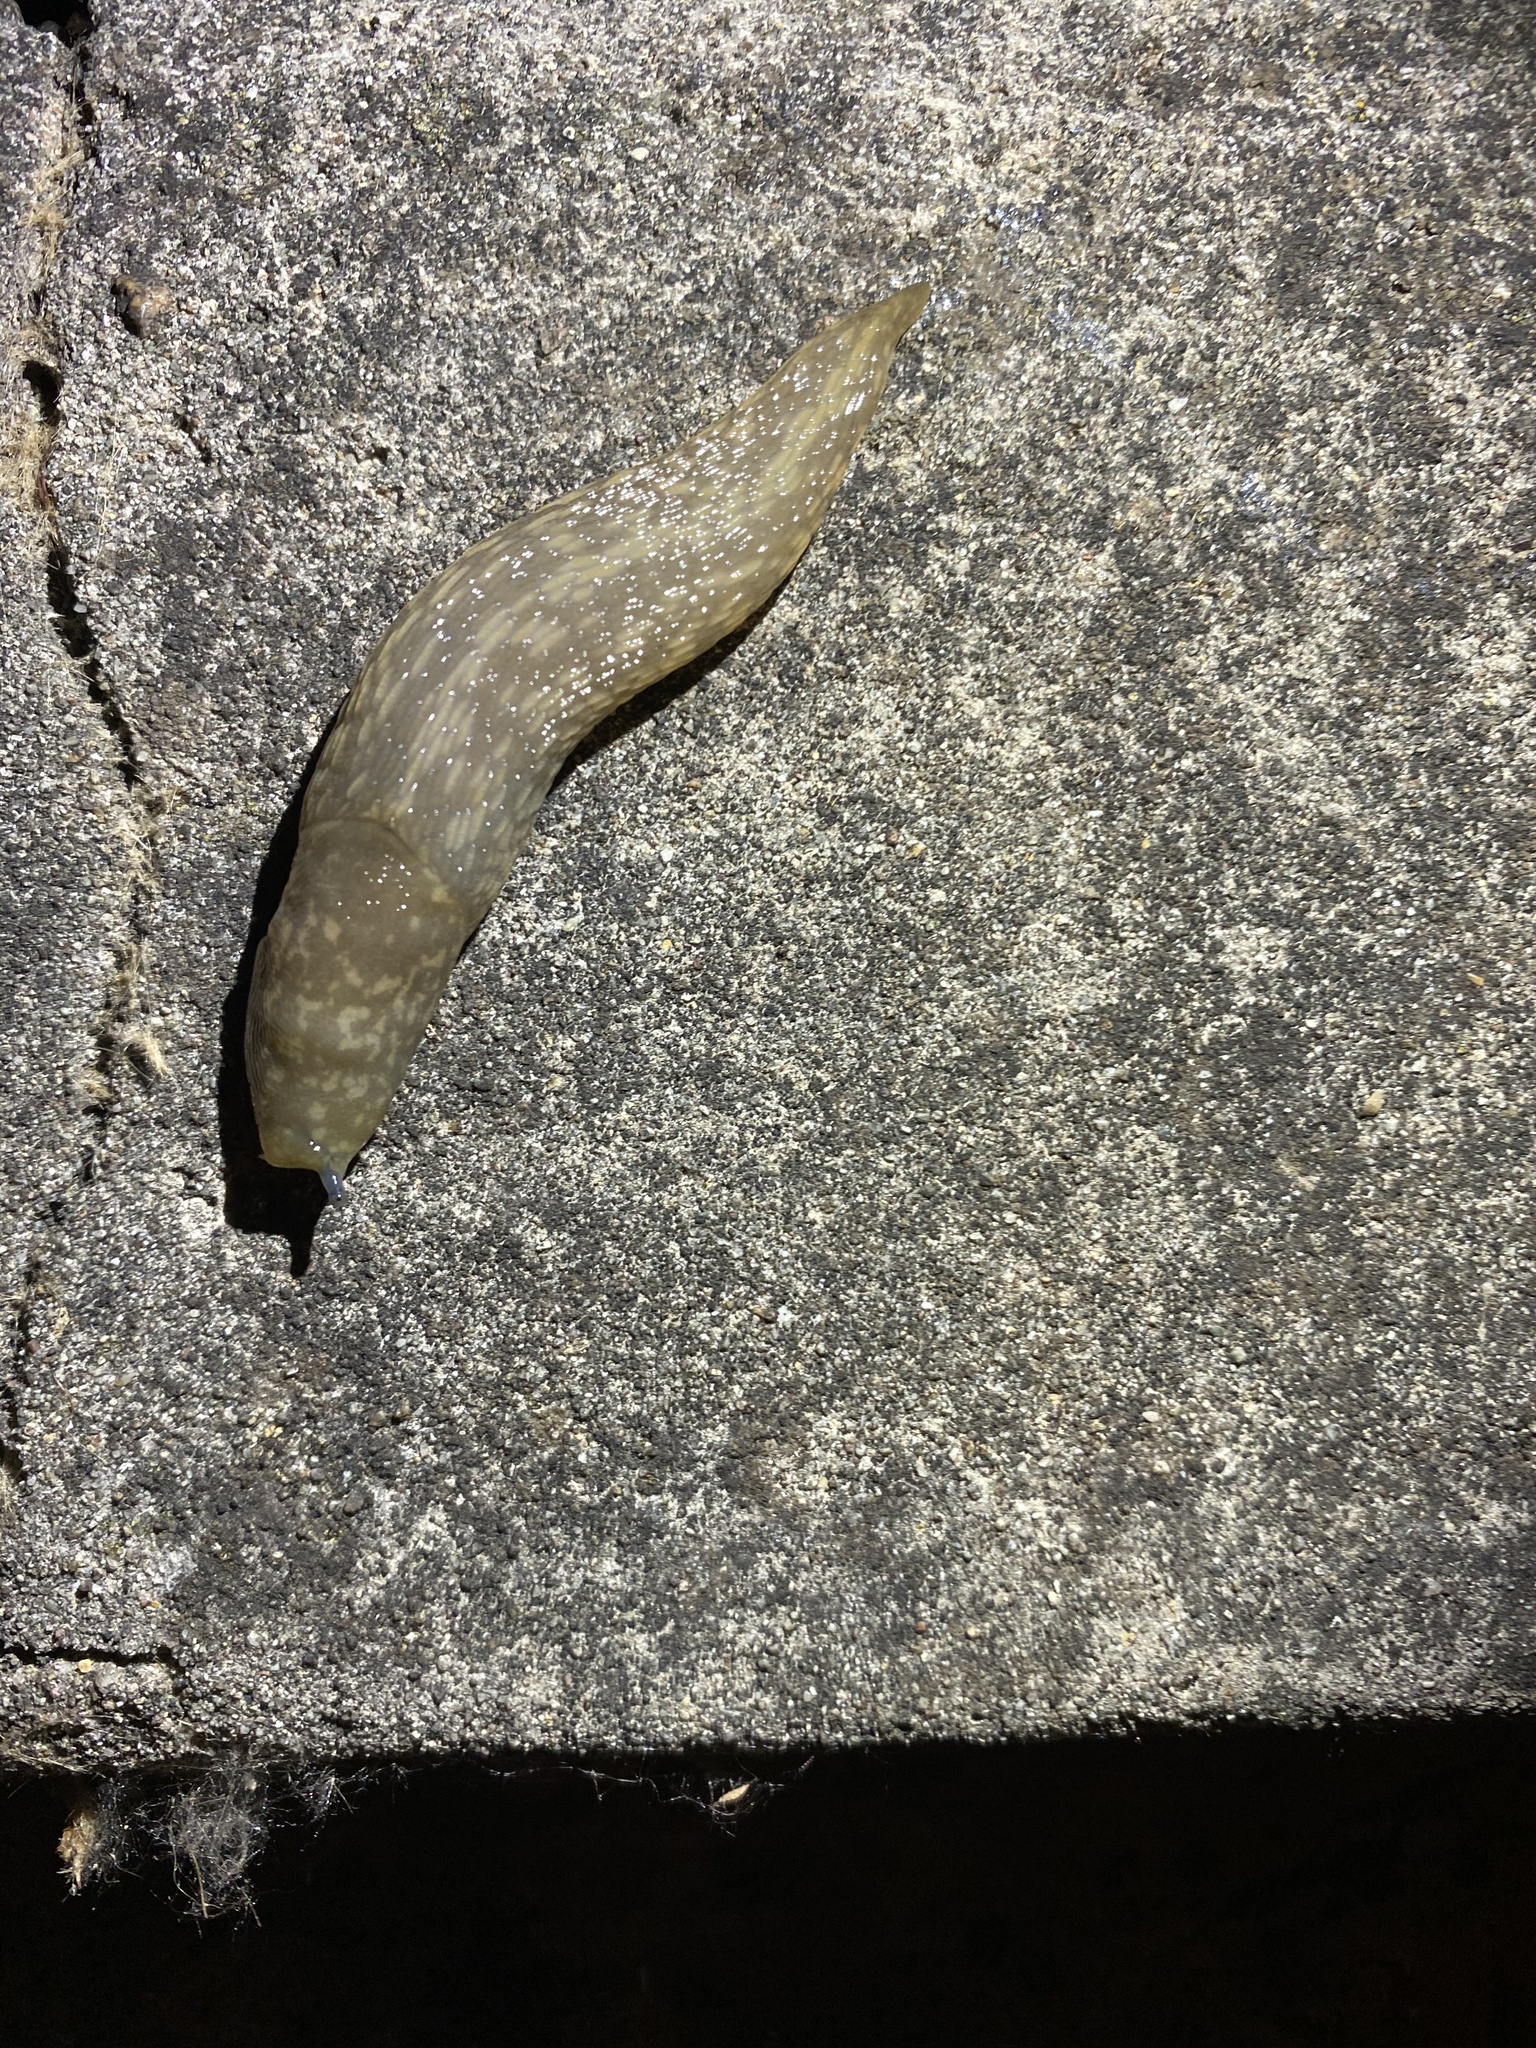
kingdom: Animalia
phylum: Mollusca
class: Gastropoda
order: Stylommatophora
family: Limacidae
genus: Limacus
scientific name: Limacus flavus
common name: Yellow gardenslug
